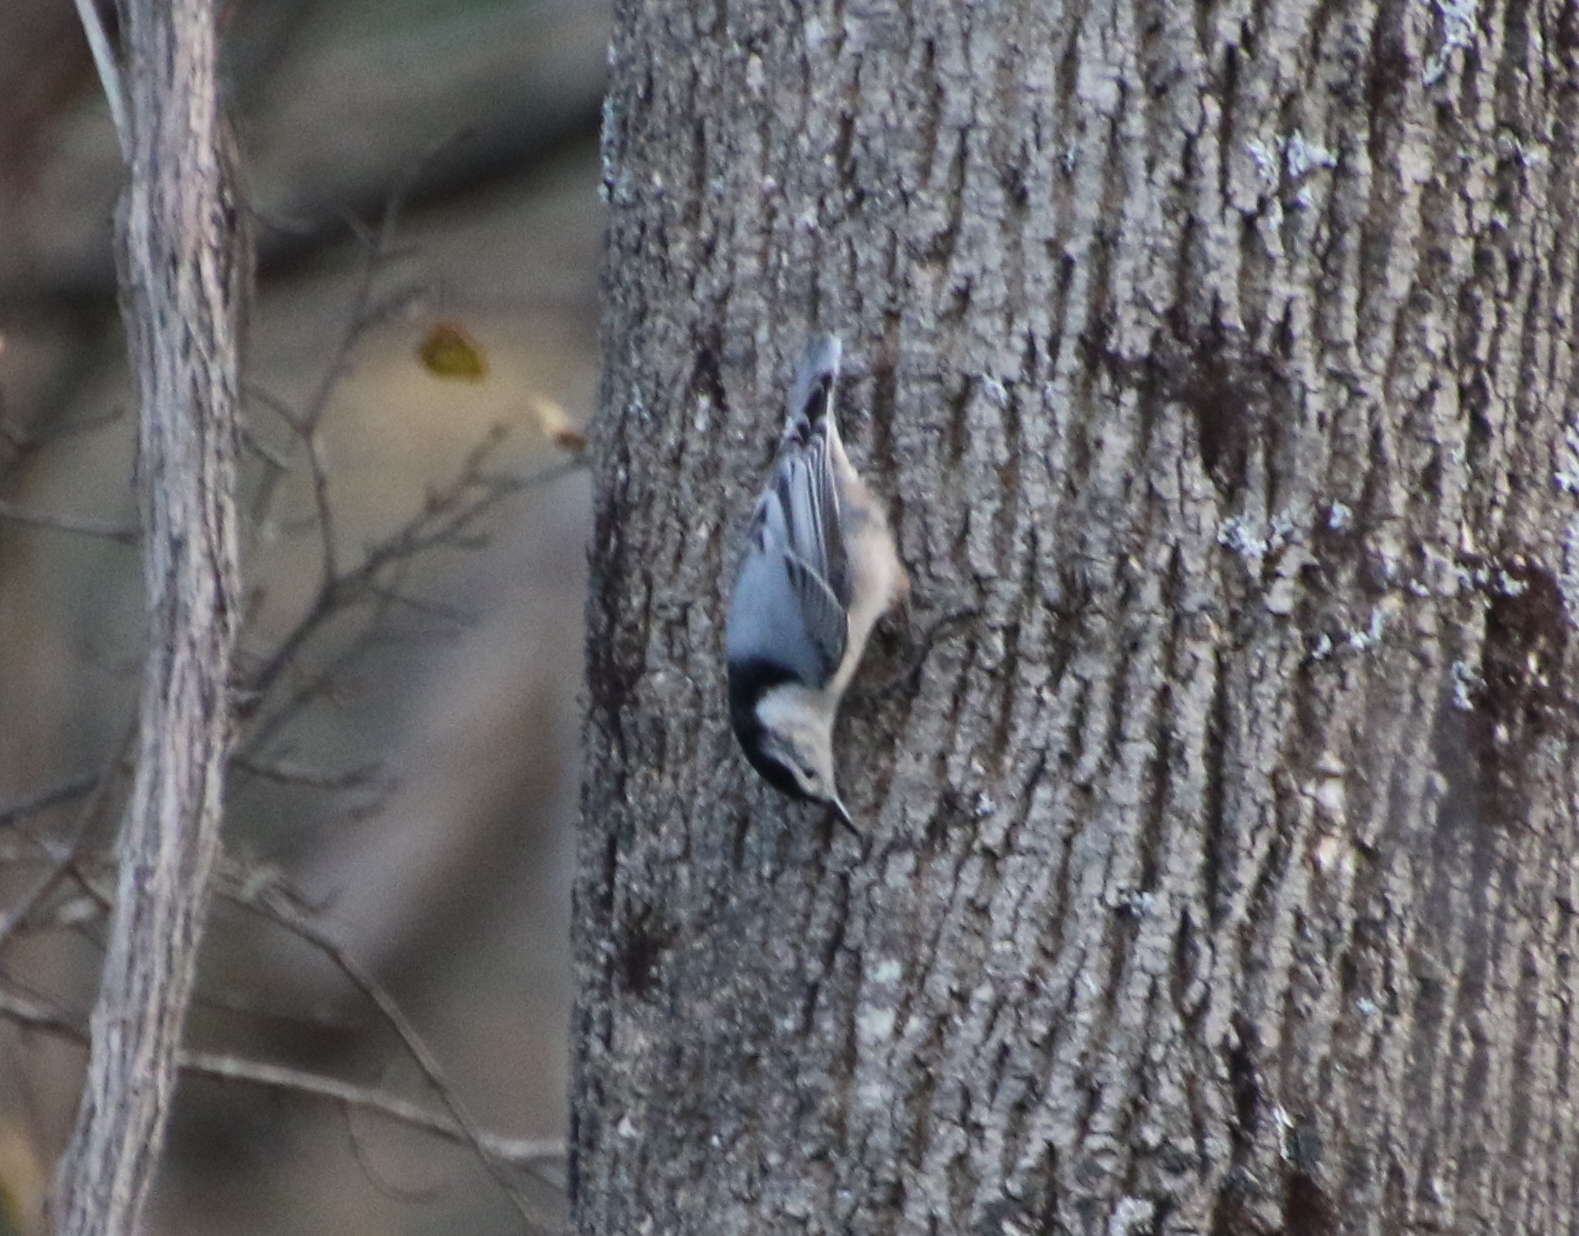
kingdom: Animalia
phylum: Chordata
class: Aves
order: Passeriformes
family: Sittidae
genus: Sitta
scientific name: Sitta carolinensis
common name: White-breasted nuthatch
